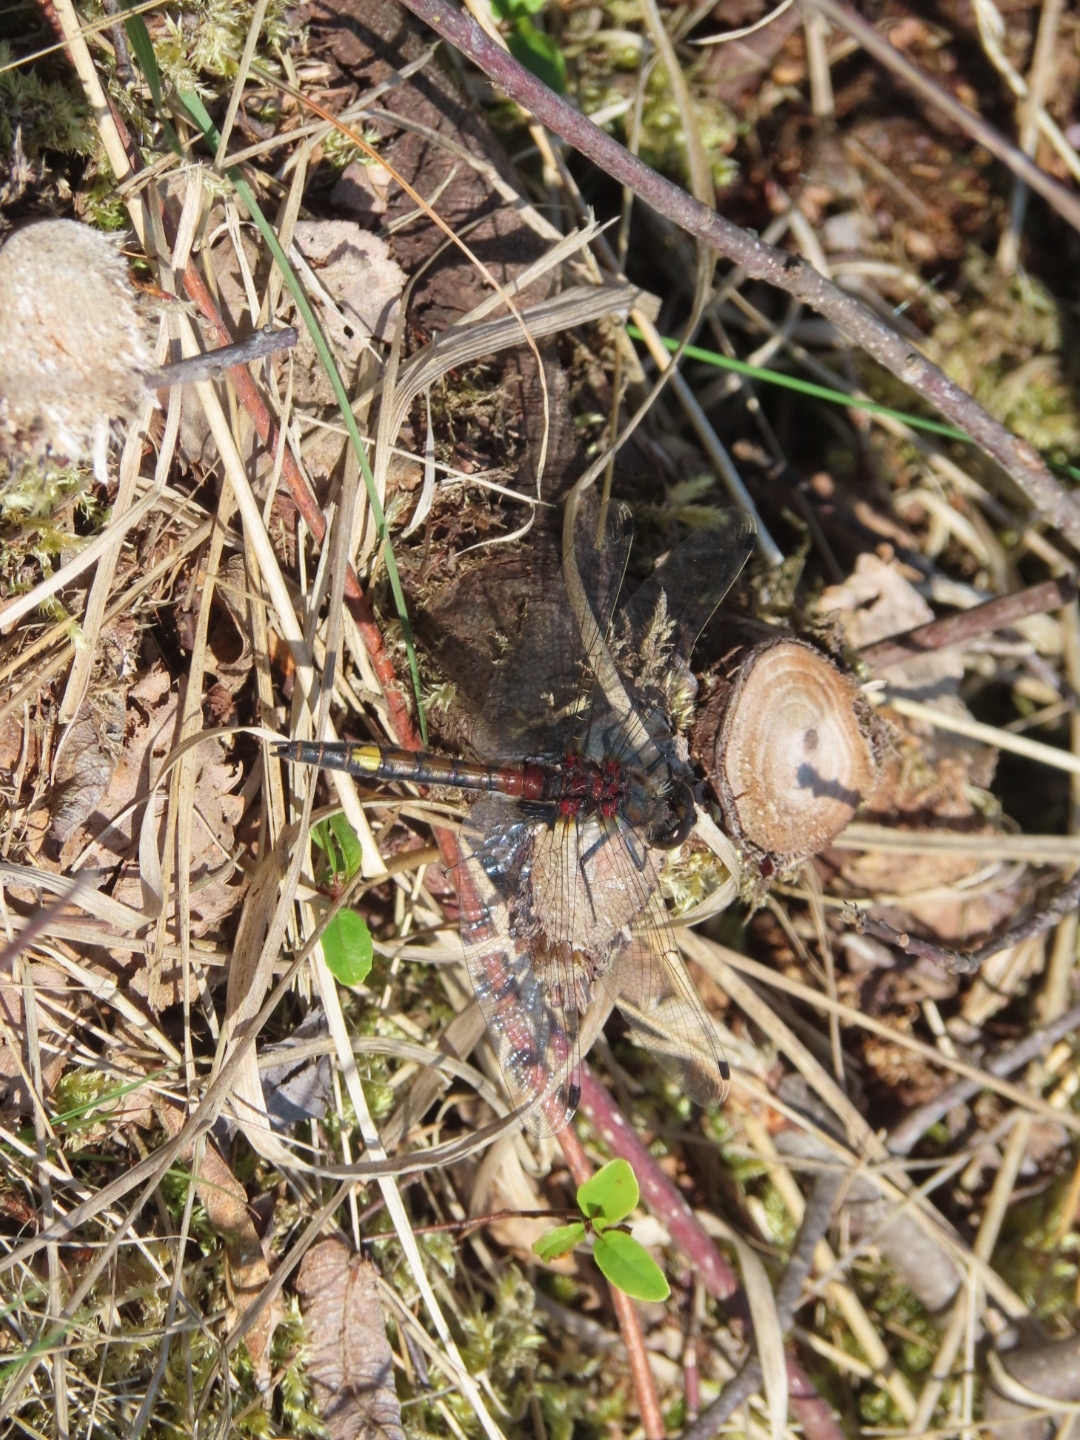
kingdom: Animalia
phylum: Arthropoda
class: Insecta
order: Odonata
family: Libellulidae
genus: Leucorrhinia
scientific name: Leucorrhinia pectoralis
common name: Yellow-spotted whiteface
